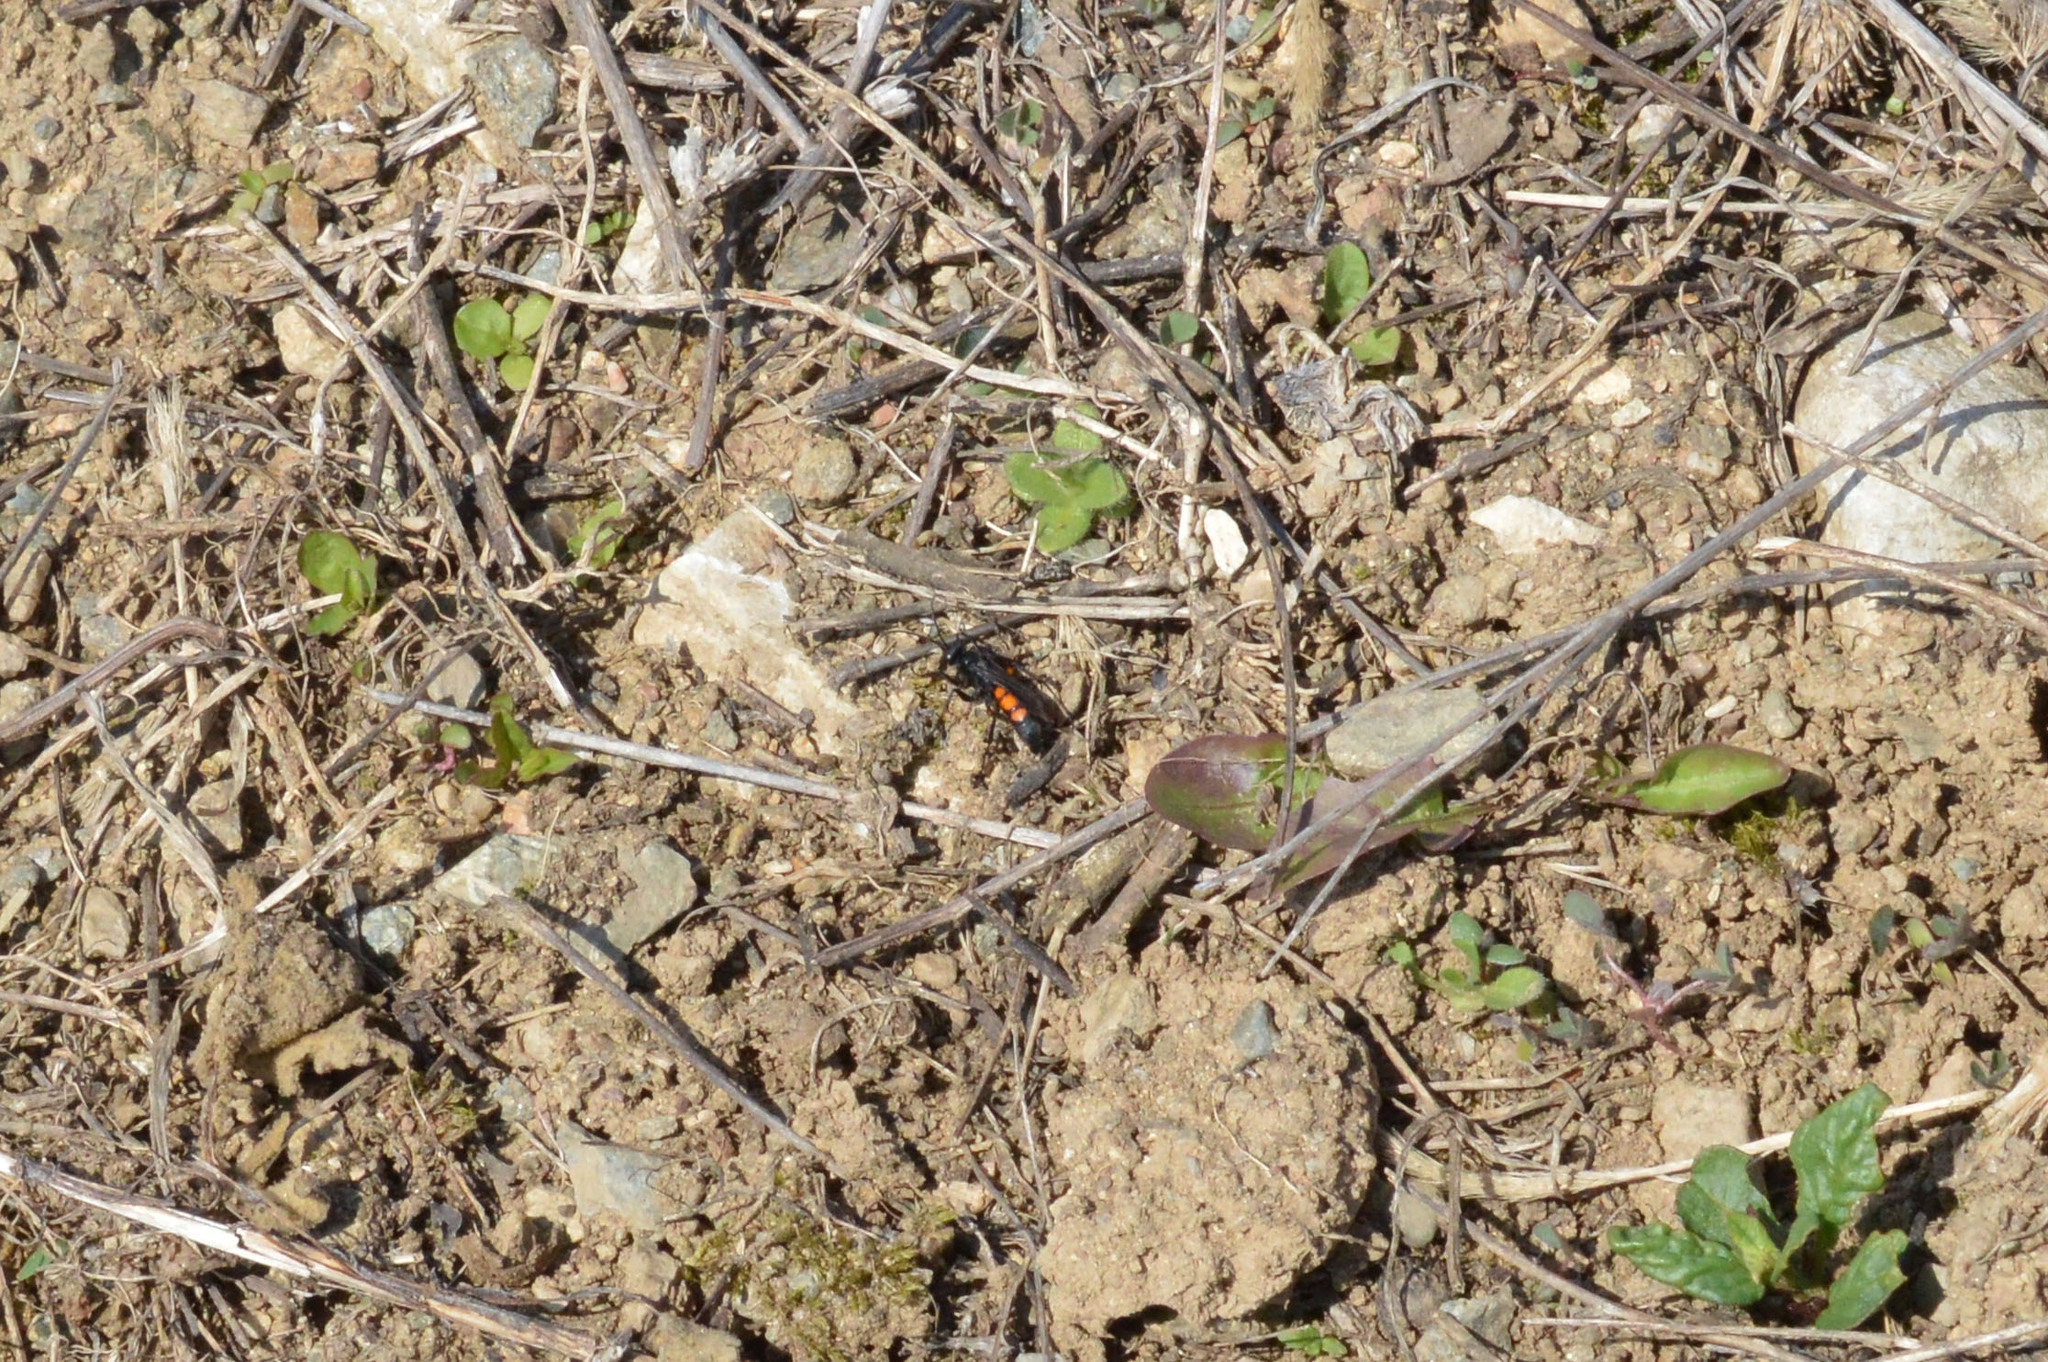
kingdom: Animalia
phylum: Arthropoda
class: Insecta
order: Hymenoptera
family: Pompilidae
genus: Anoplius
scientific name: Anoplius viaticus
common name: Black banded spider wasp
